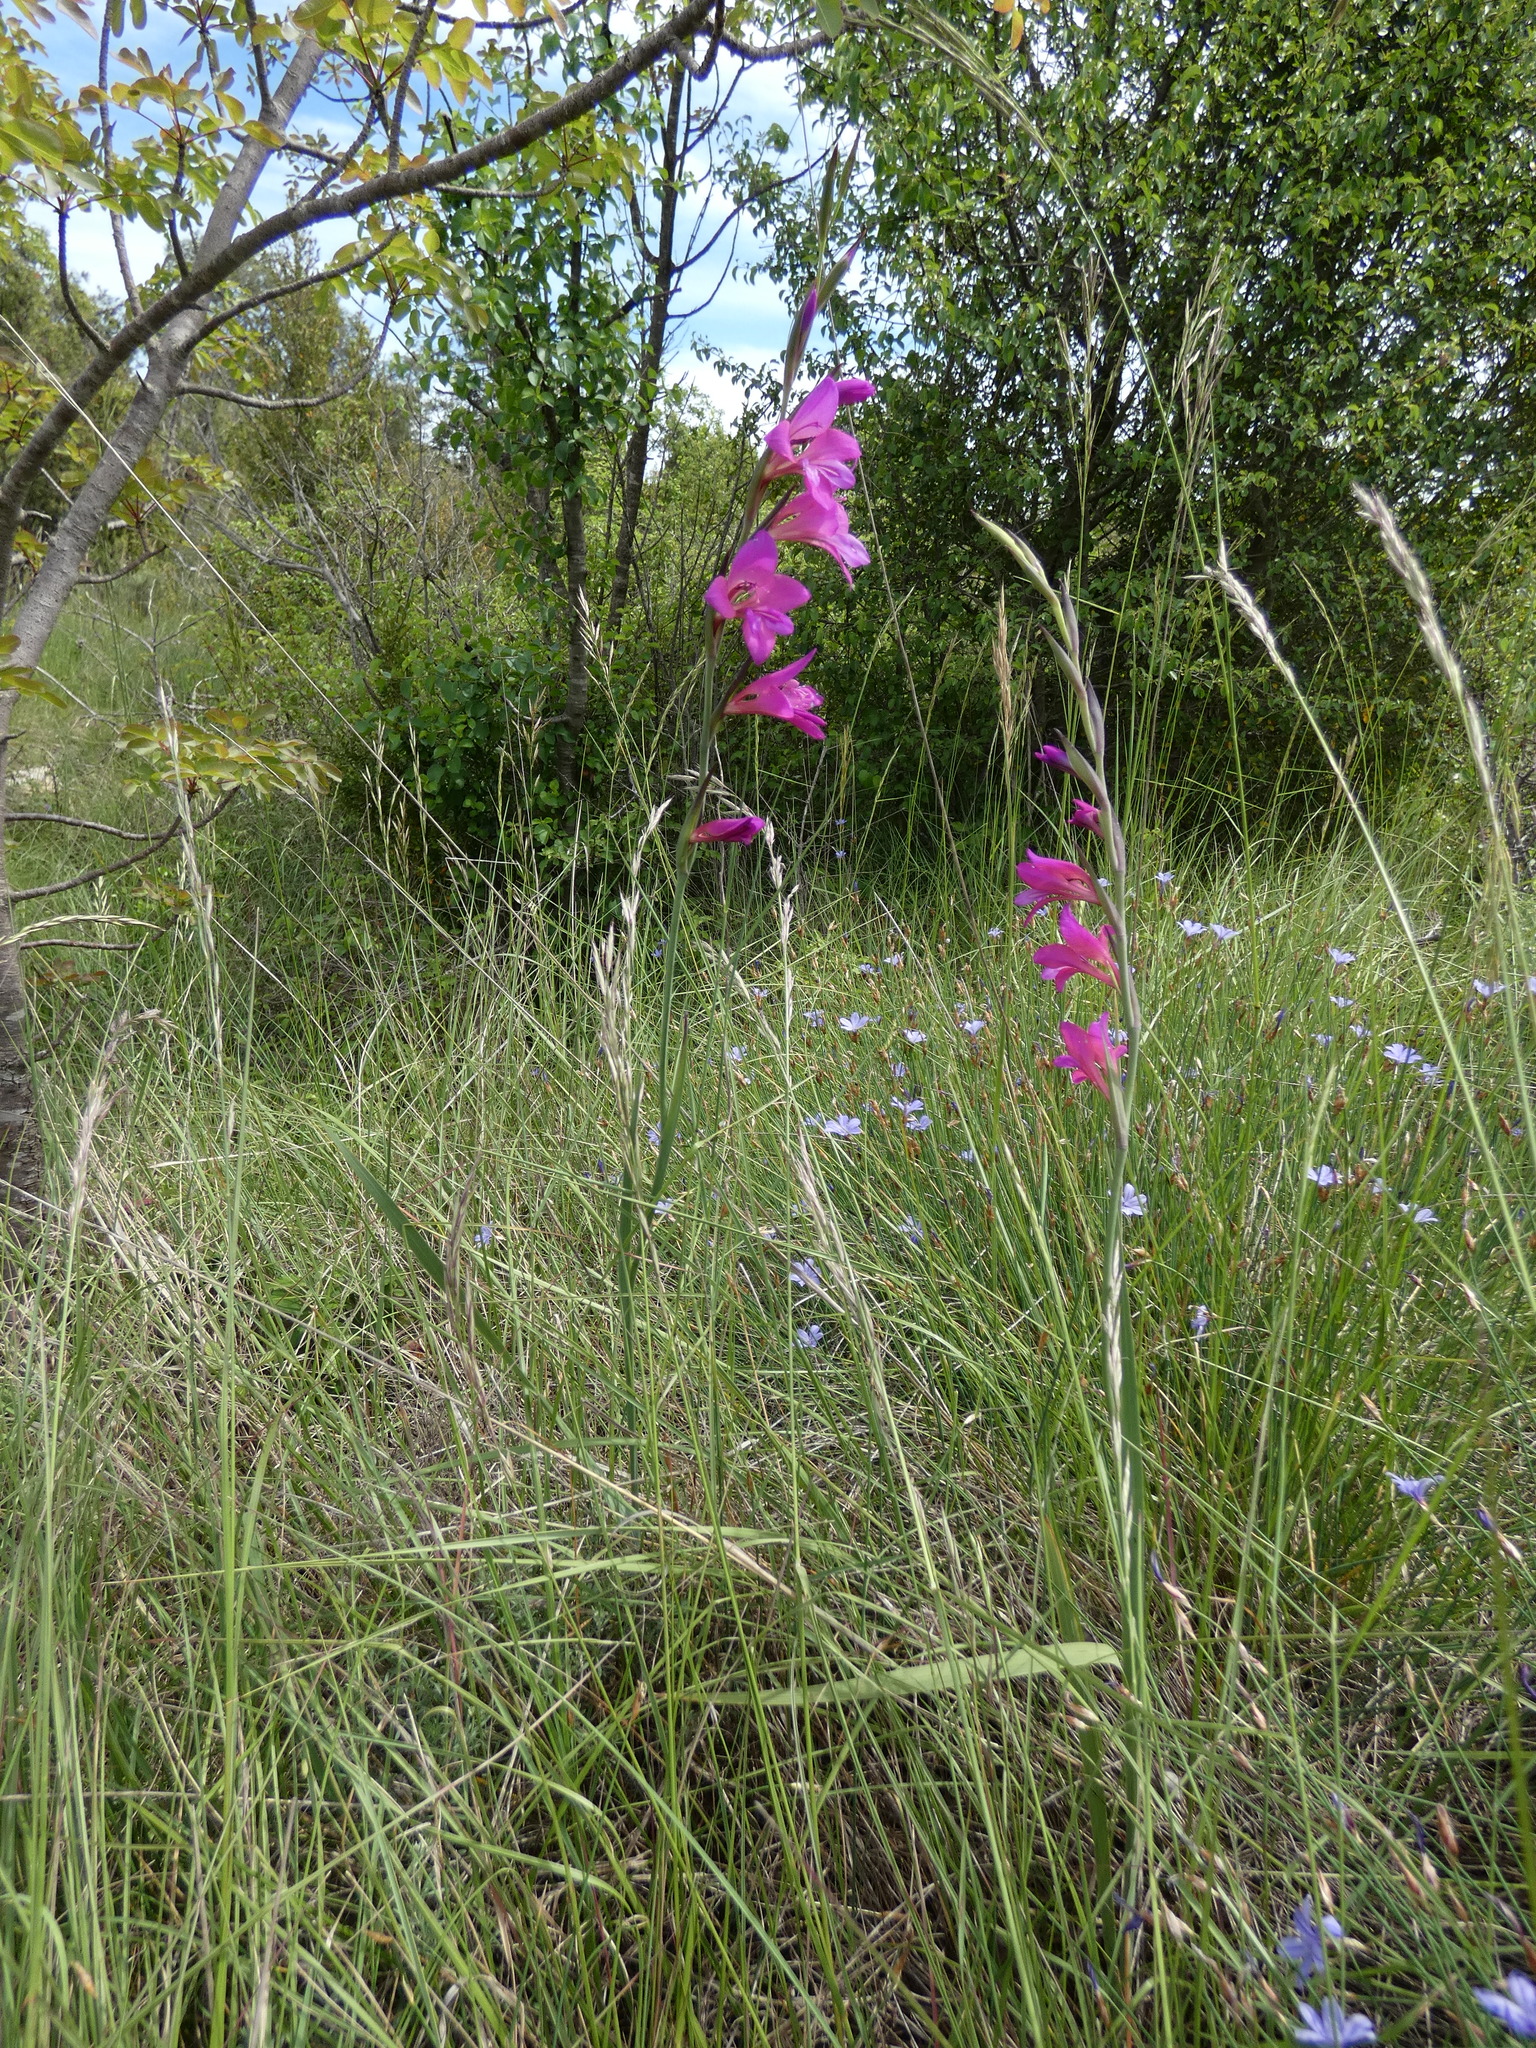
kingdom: Plantae
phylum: Tracheophyta
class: Liliopsida
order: Asparagales
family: Iridaceae
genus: Gladiolus
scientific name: Gladiolus dubius
